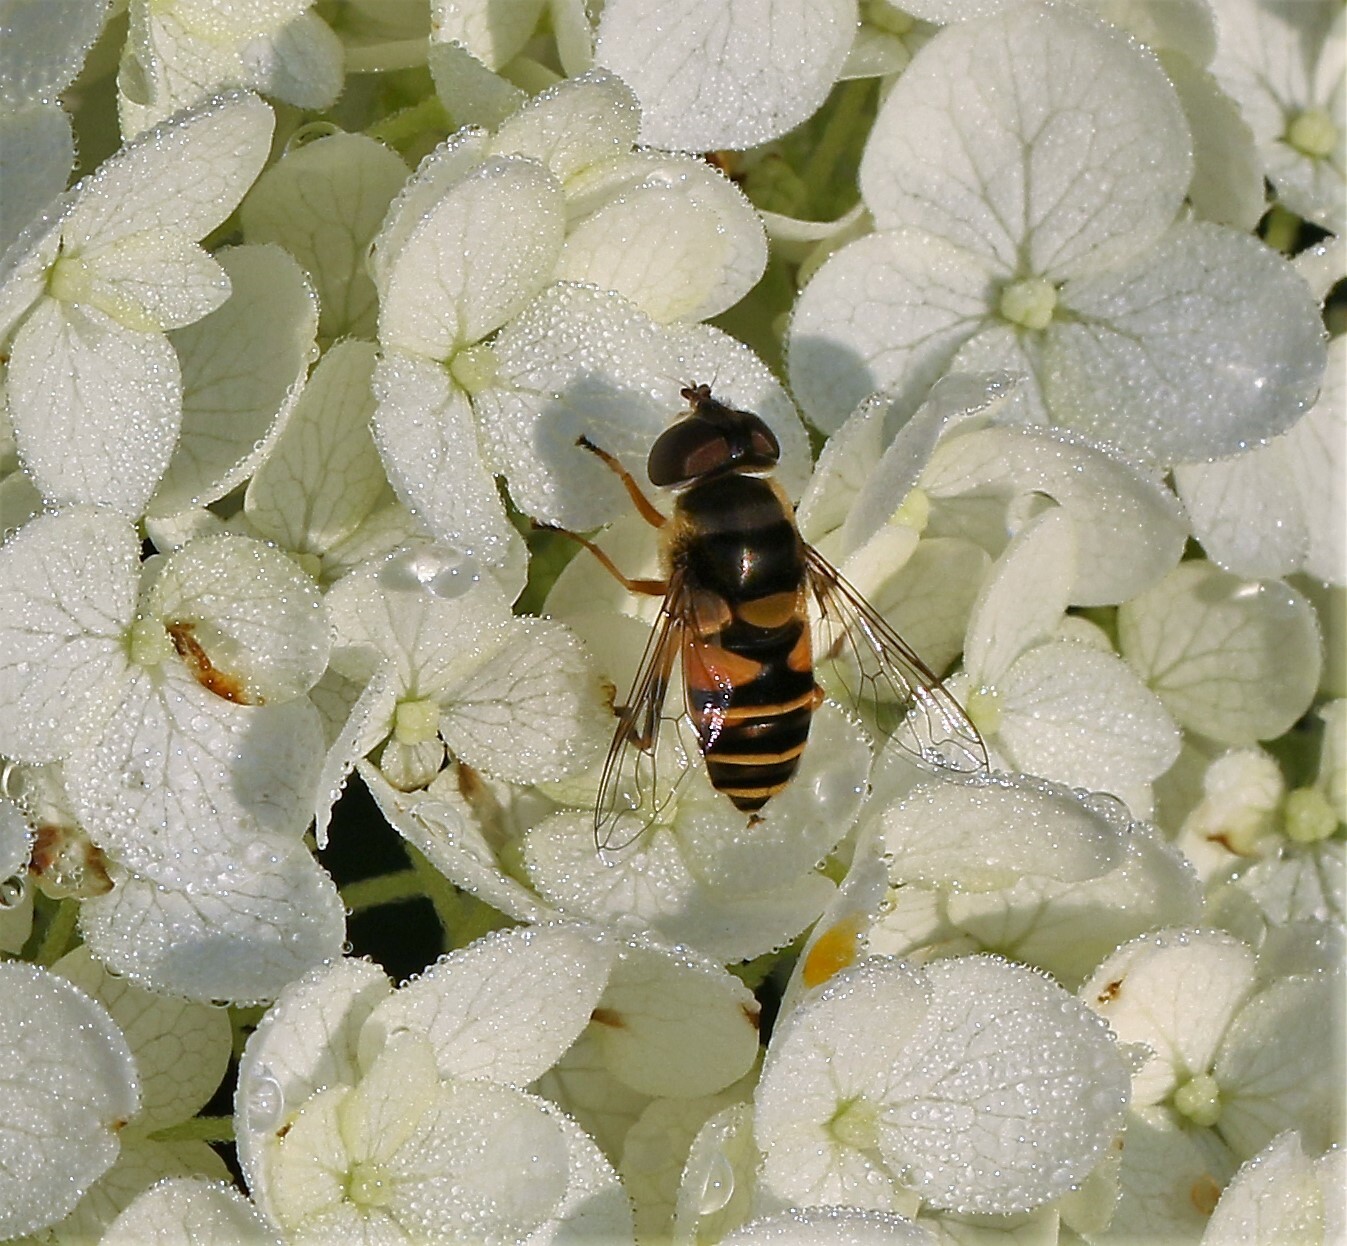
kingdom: Animalia
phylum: Arthropoda
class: Insecta
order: Diptera
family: Syrphidae
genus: Eristalis
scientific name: Eristalis transversa
